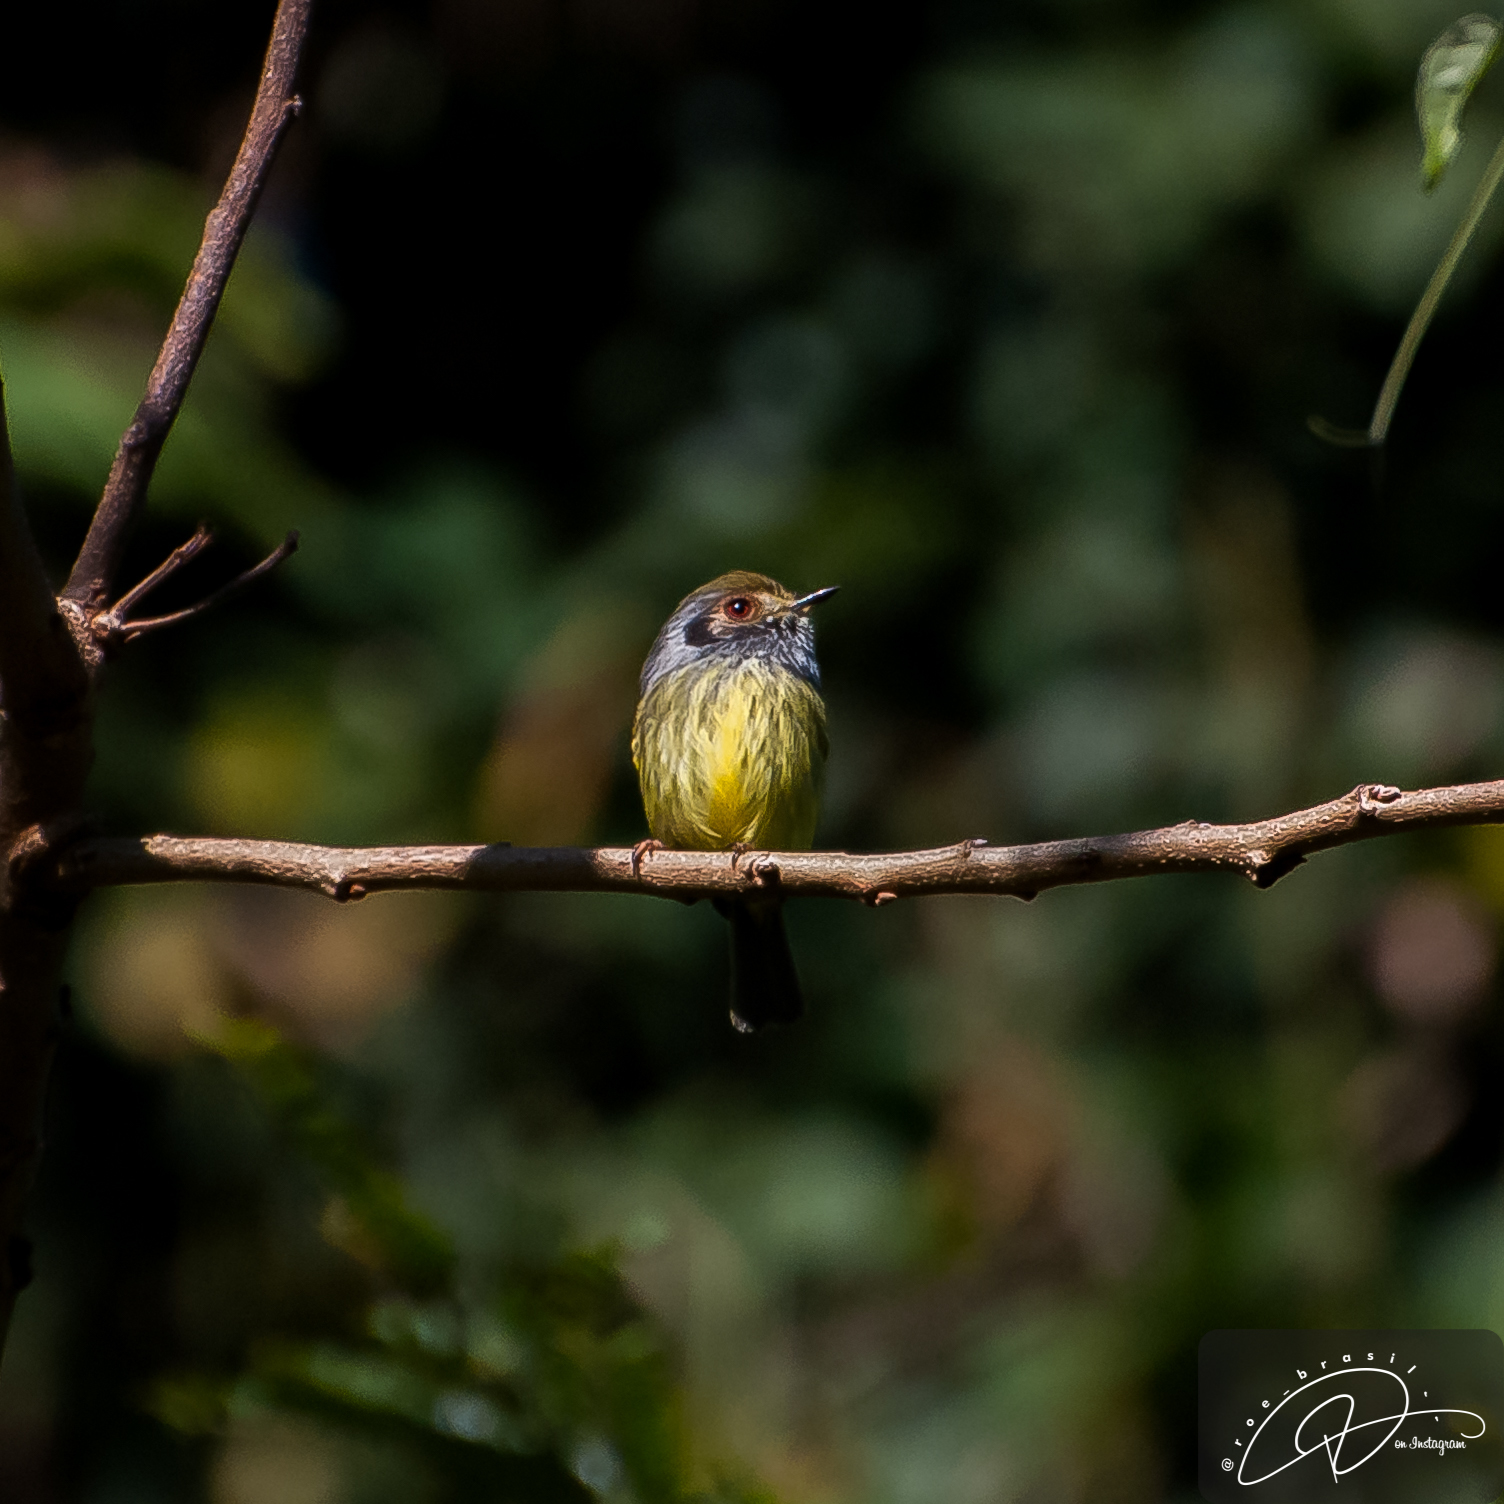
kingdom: Animalia
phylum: Chordata
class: Aves
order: Passeriformes
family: Tyrannidae
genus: Myiornis
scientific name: Myiornis auricularis
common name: Eared pygmy tyrant
